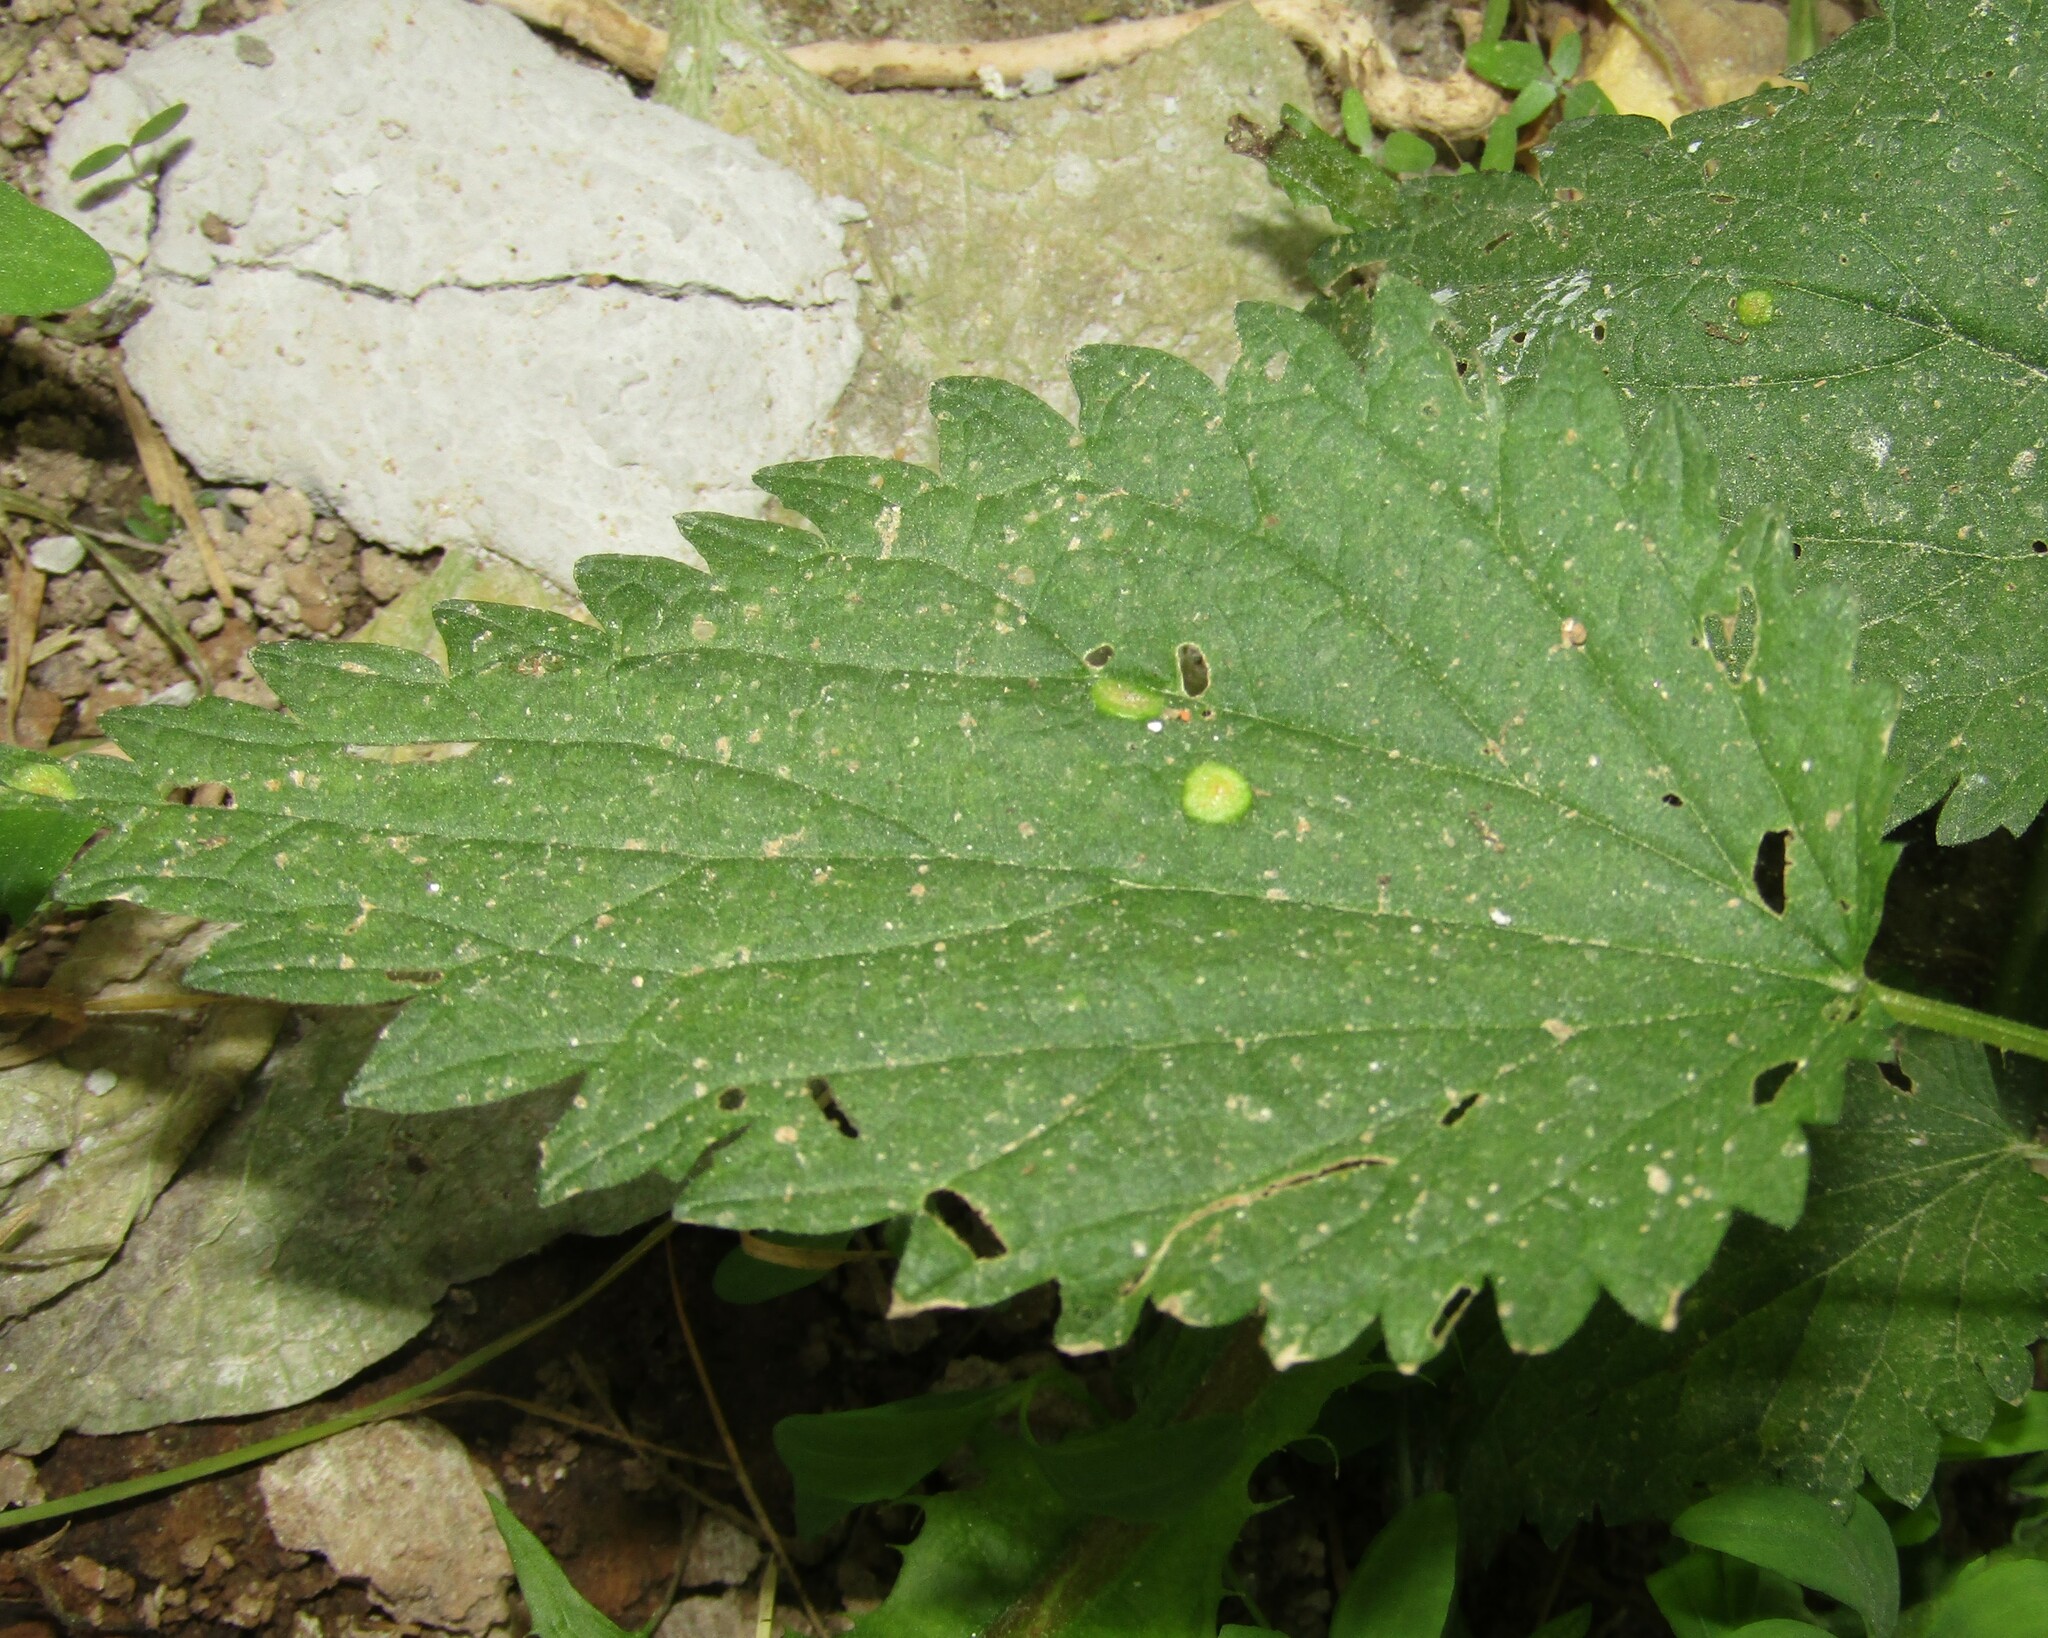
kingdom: Fungi
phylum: Basidiomycota
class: Pucciniomycetes
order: Pucciniales
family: Pucciniaceae
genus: Puccinia
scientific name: Puccinia urticata
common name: Nettle clustercup rust fungus
